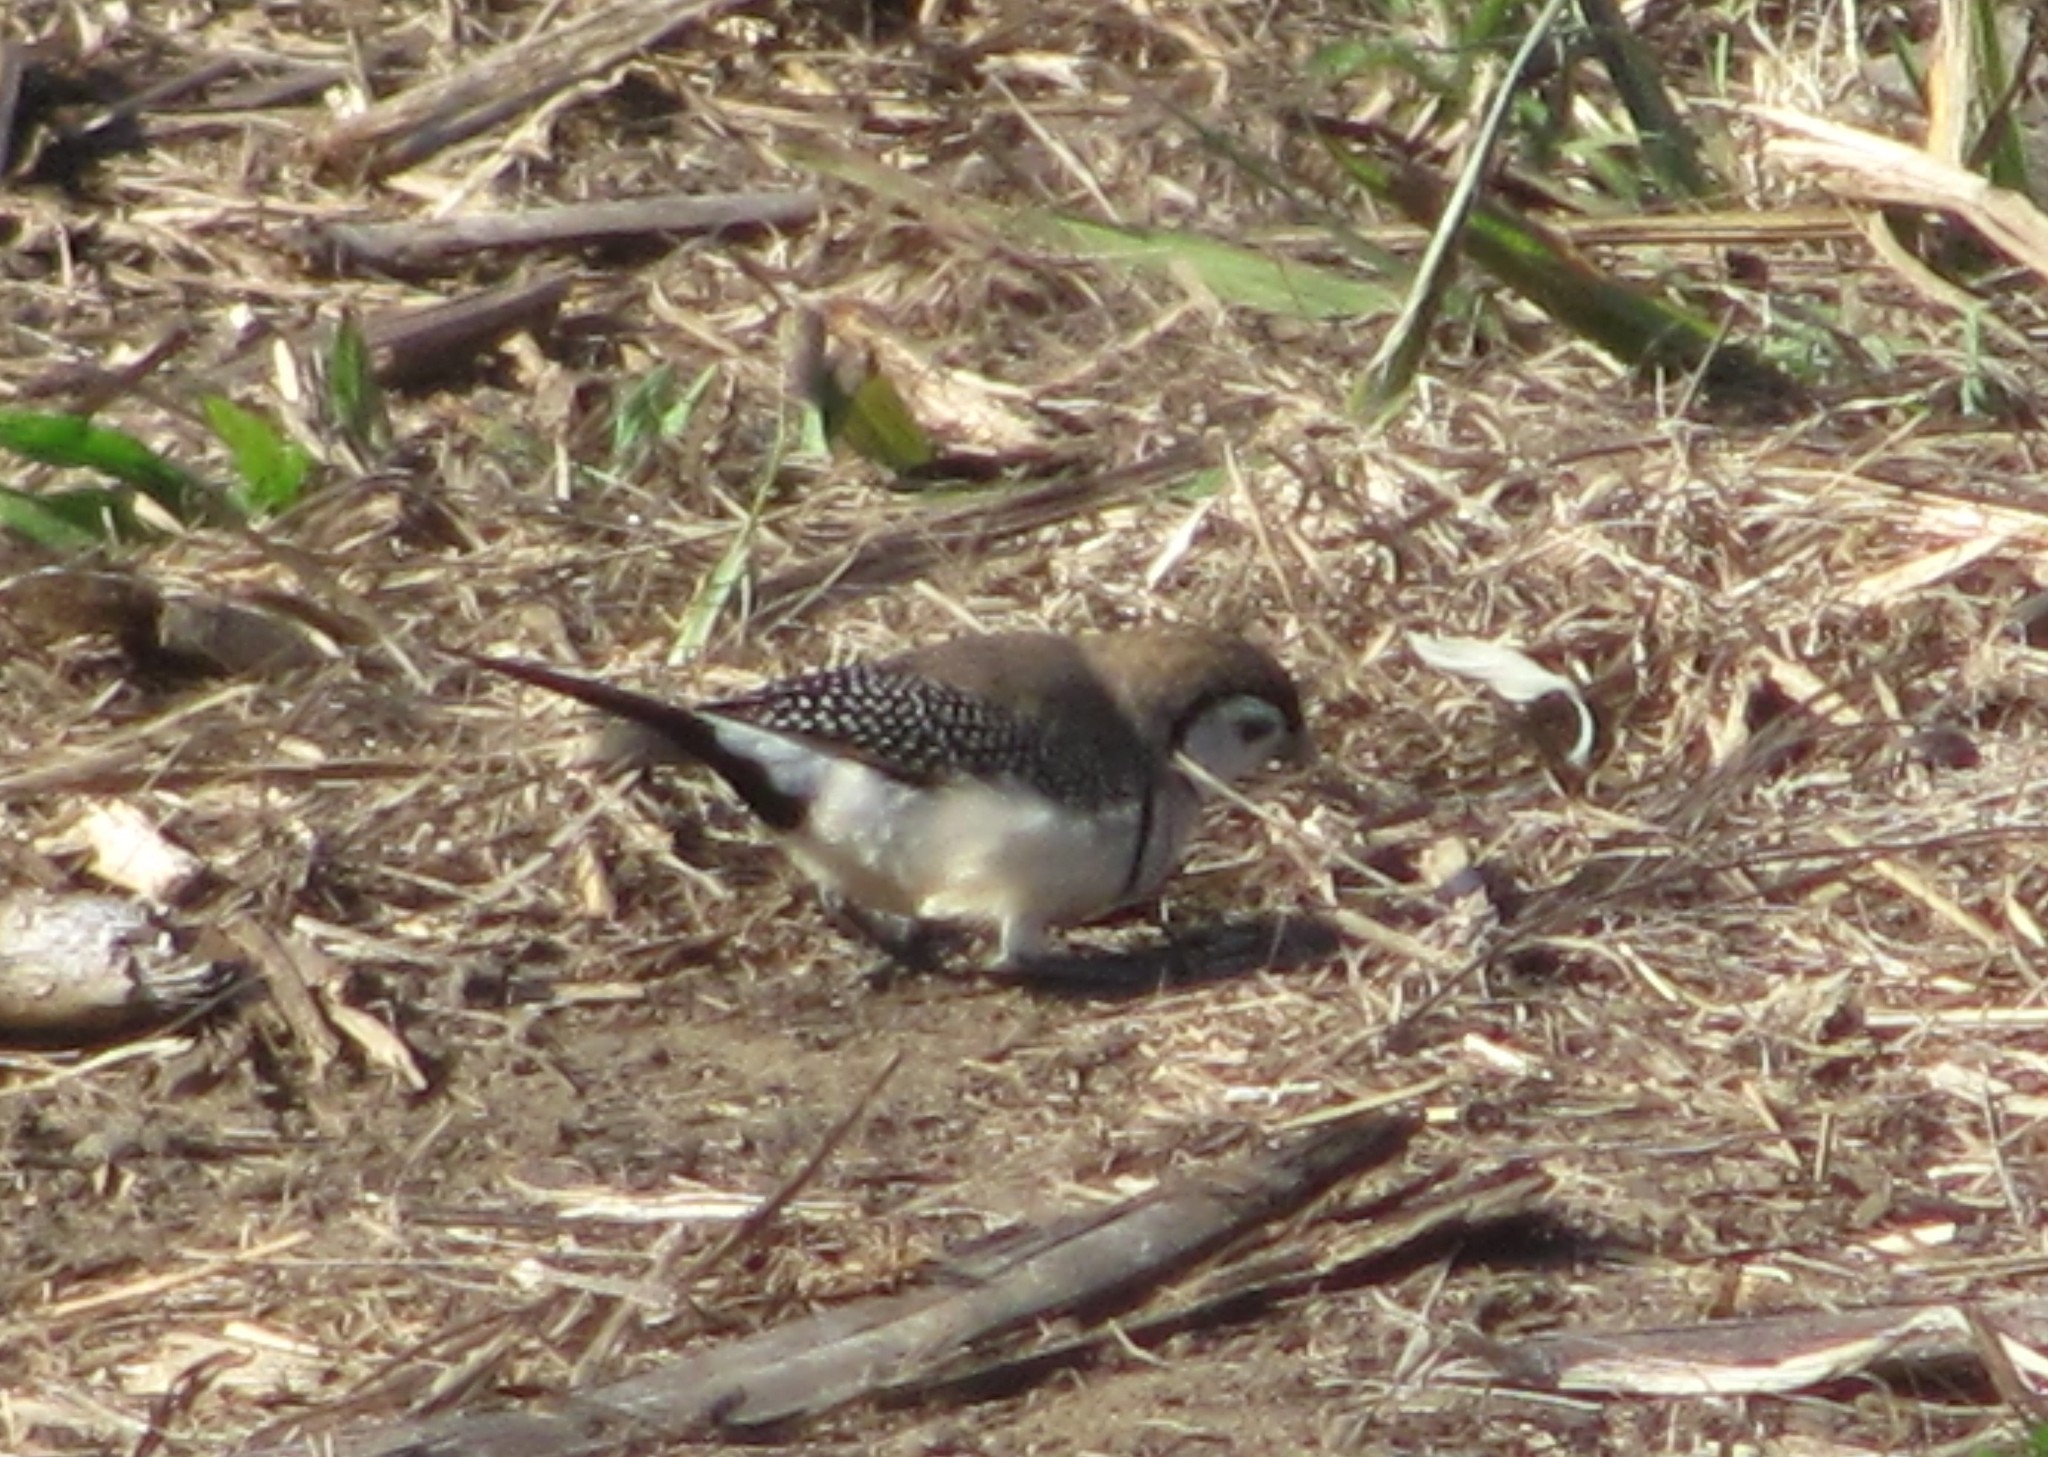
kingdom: Animalia
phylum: Chordata
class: Aves
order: Passeriformes
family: Estrildidae
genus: Taeniopygia
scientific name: Taeniopygia bichenovii
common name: Double-barred finch
